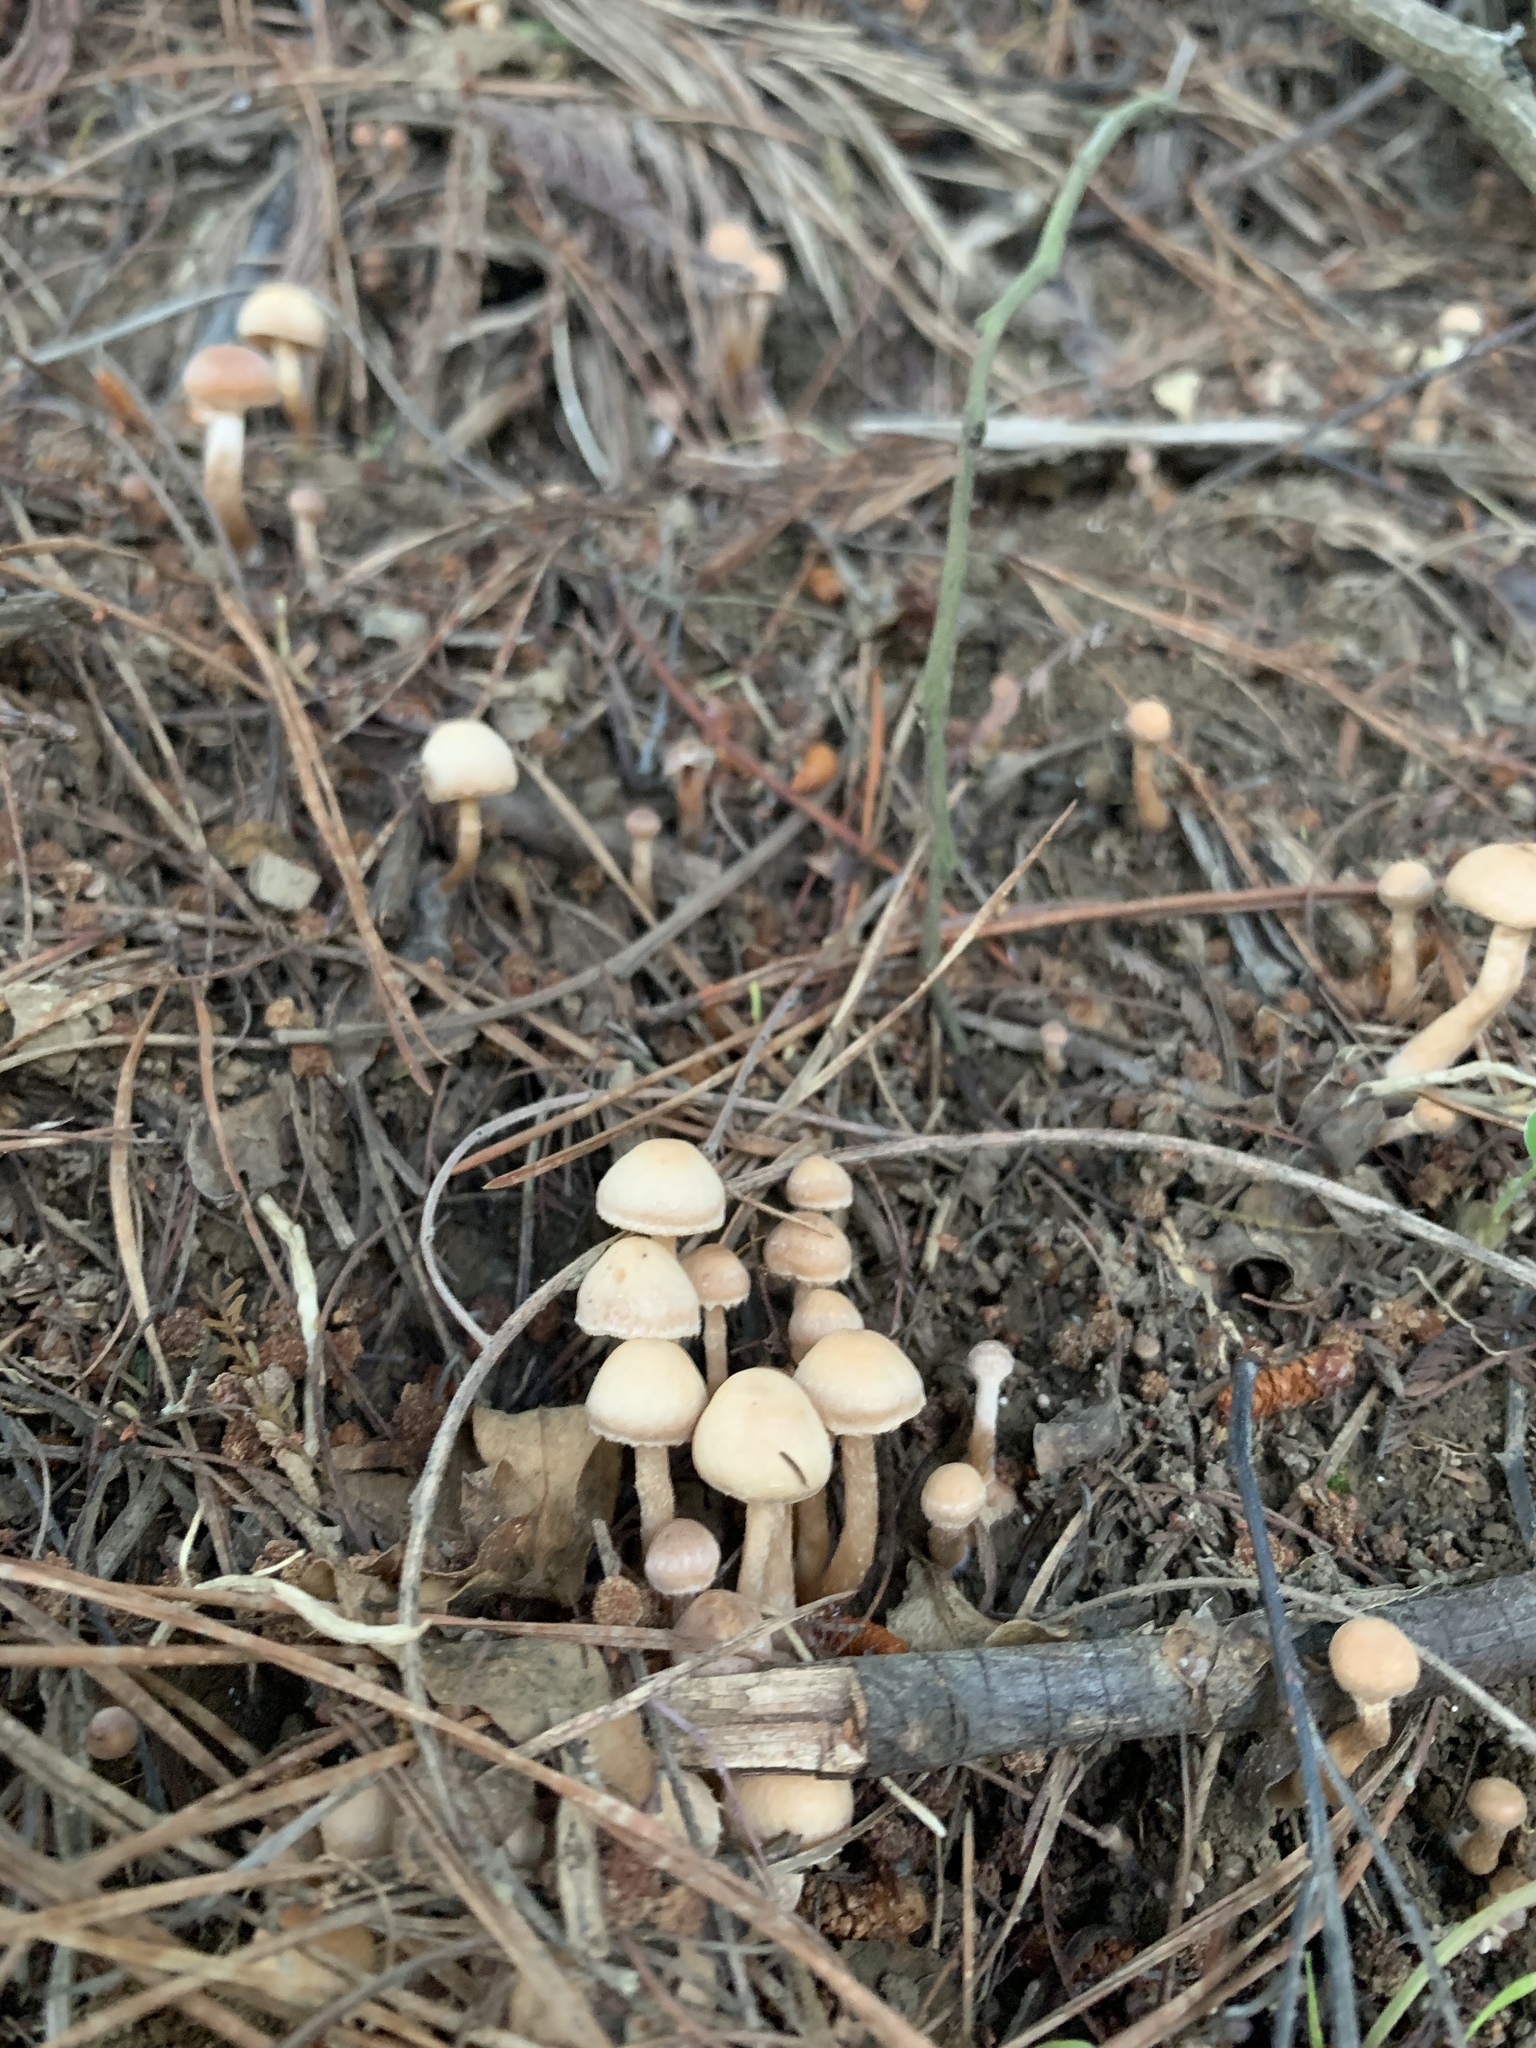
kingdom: Fungi
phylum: Basidiomycota
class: Agaricomycetes
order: Agaricales
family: Tubariaceae
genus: Tubaria
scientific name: Tubaria furfuracea
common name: Scurfy twiglet
